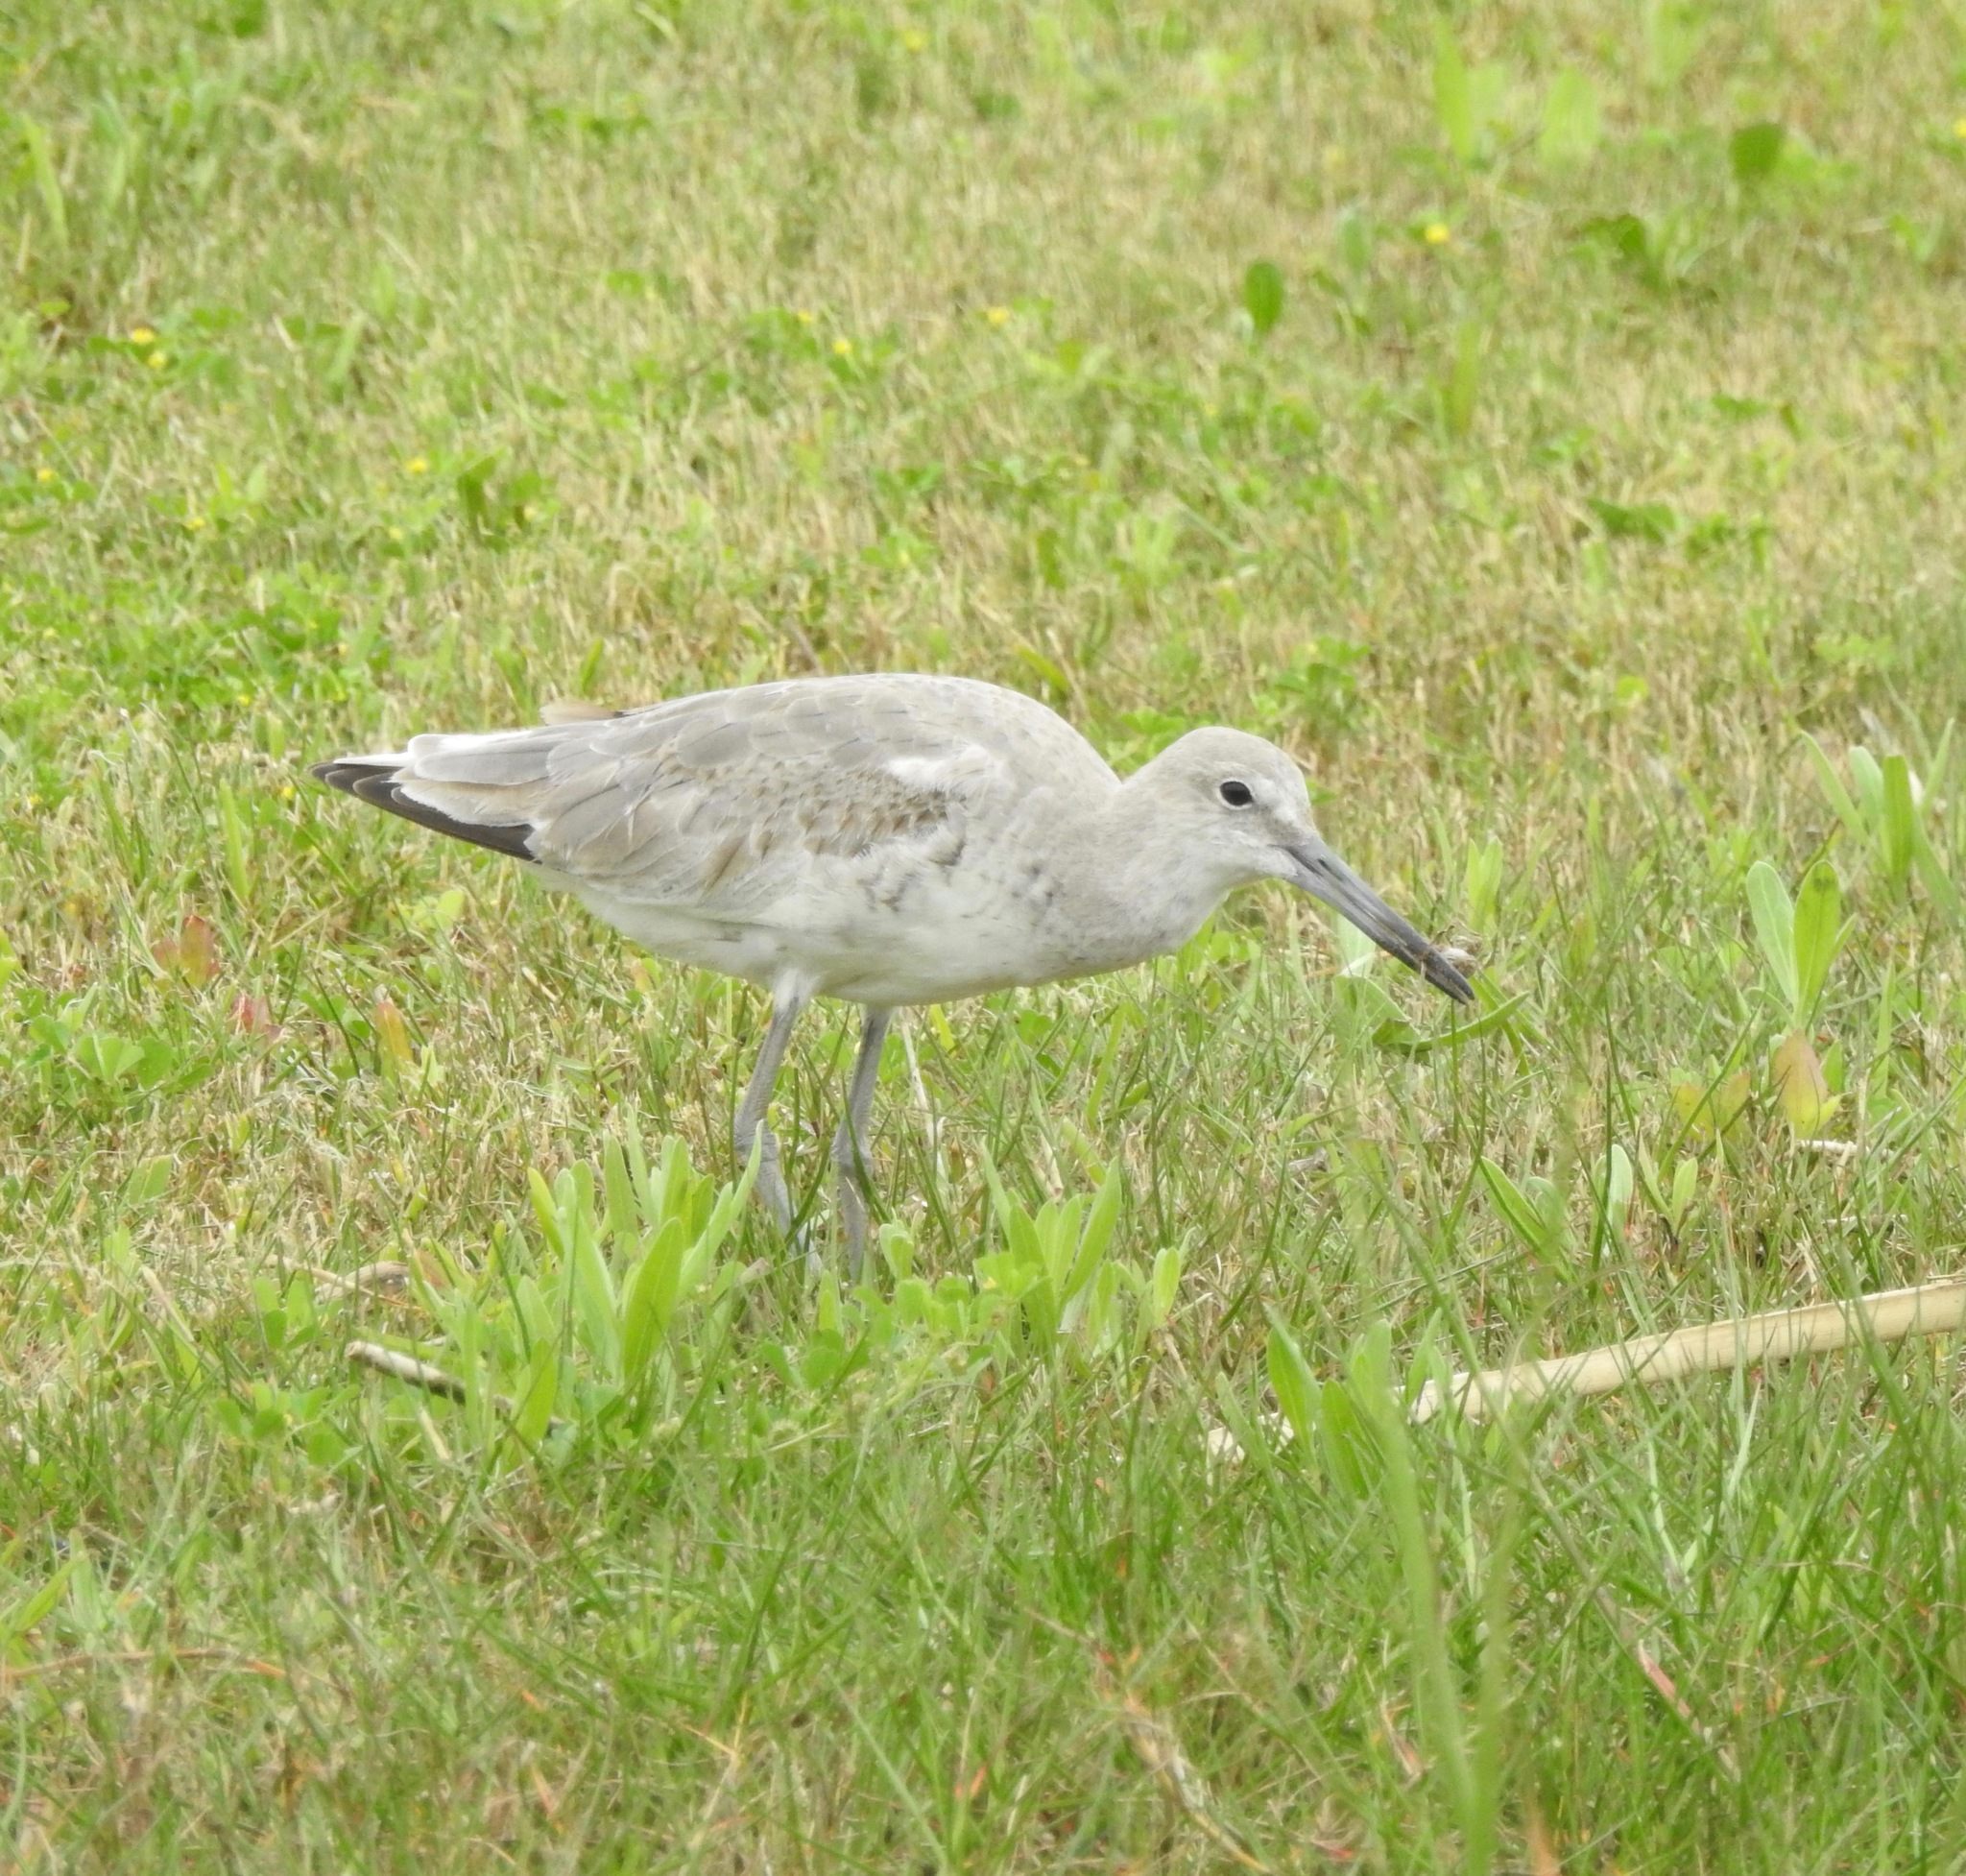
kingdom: Animalia
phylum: Chordata
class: Aves
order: Charadriiformes
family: Scolopacidae
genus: Tringa
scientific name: Tringa semipalmata
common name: Willet
